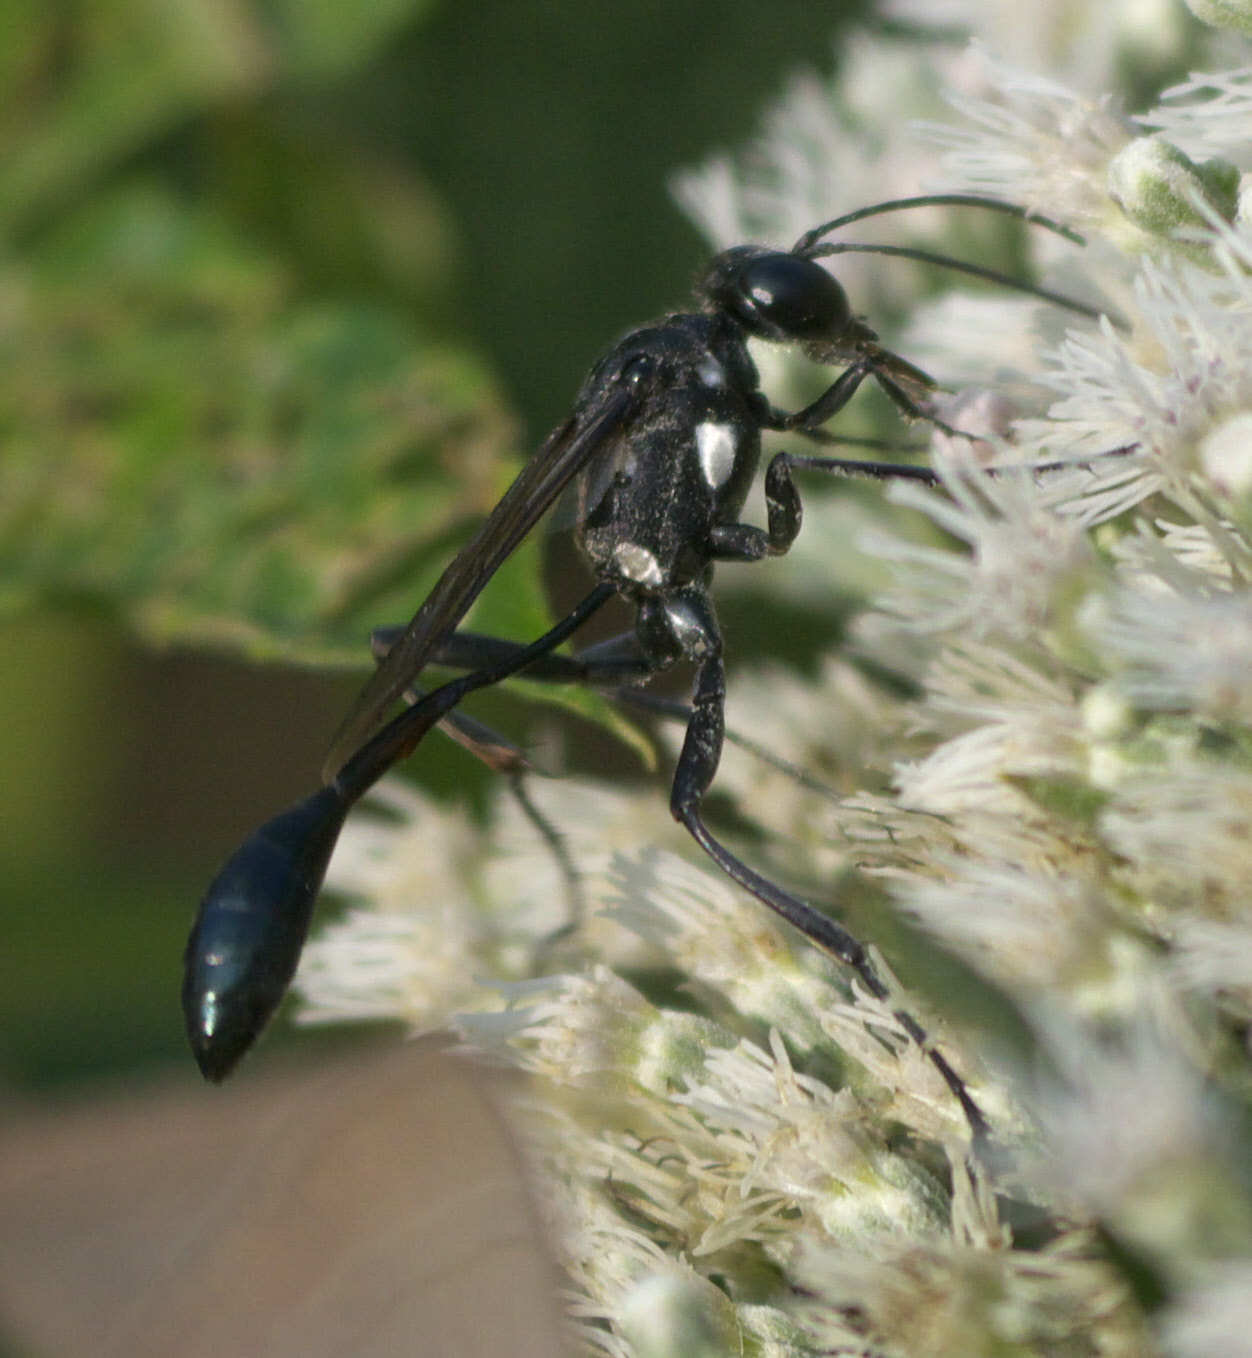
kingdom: Animalia
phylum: Arthropoda
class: Insecta
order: Hymenoptera
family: Sphecidae
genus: Eremnophila
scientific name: Eremnophila aureonotata
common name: Gold-marked thread-waisted wasp
